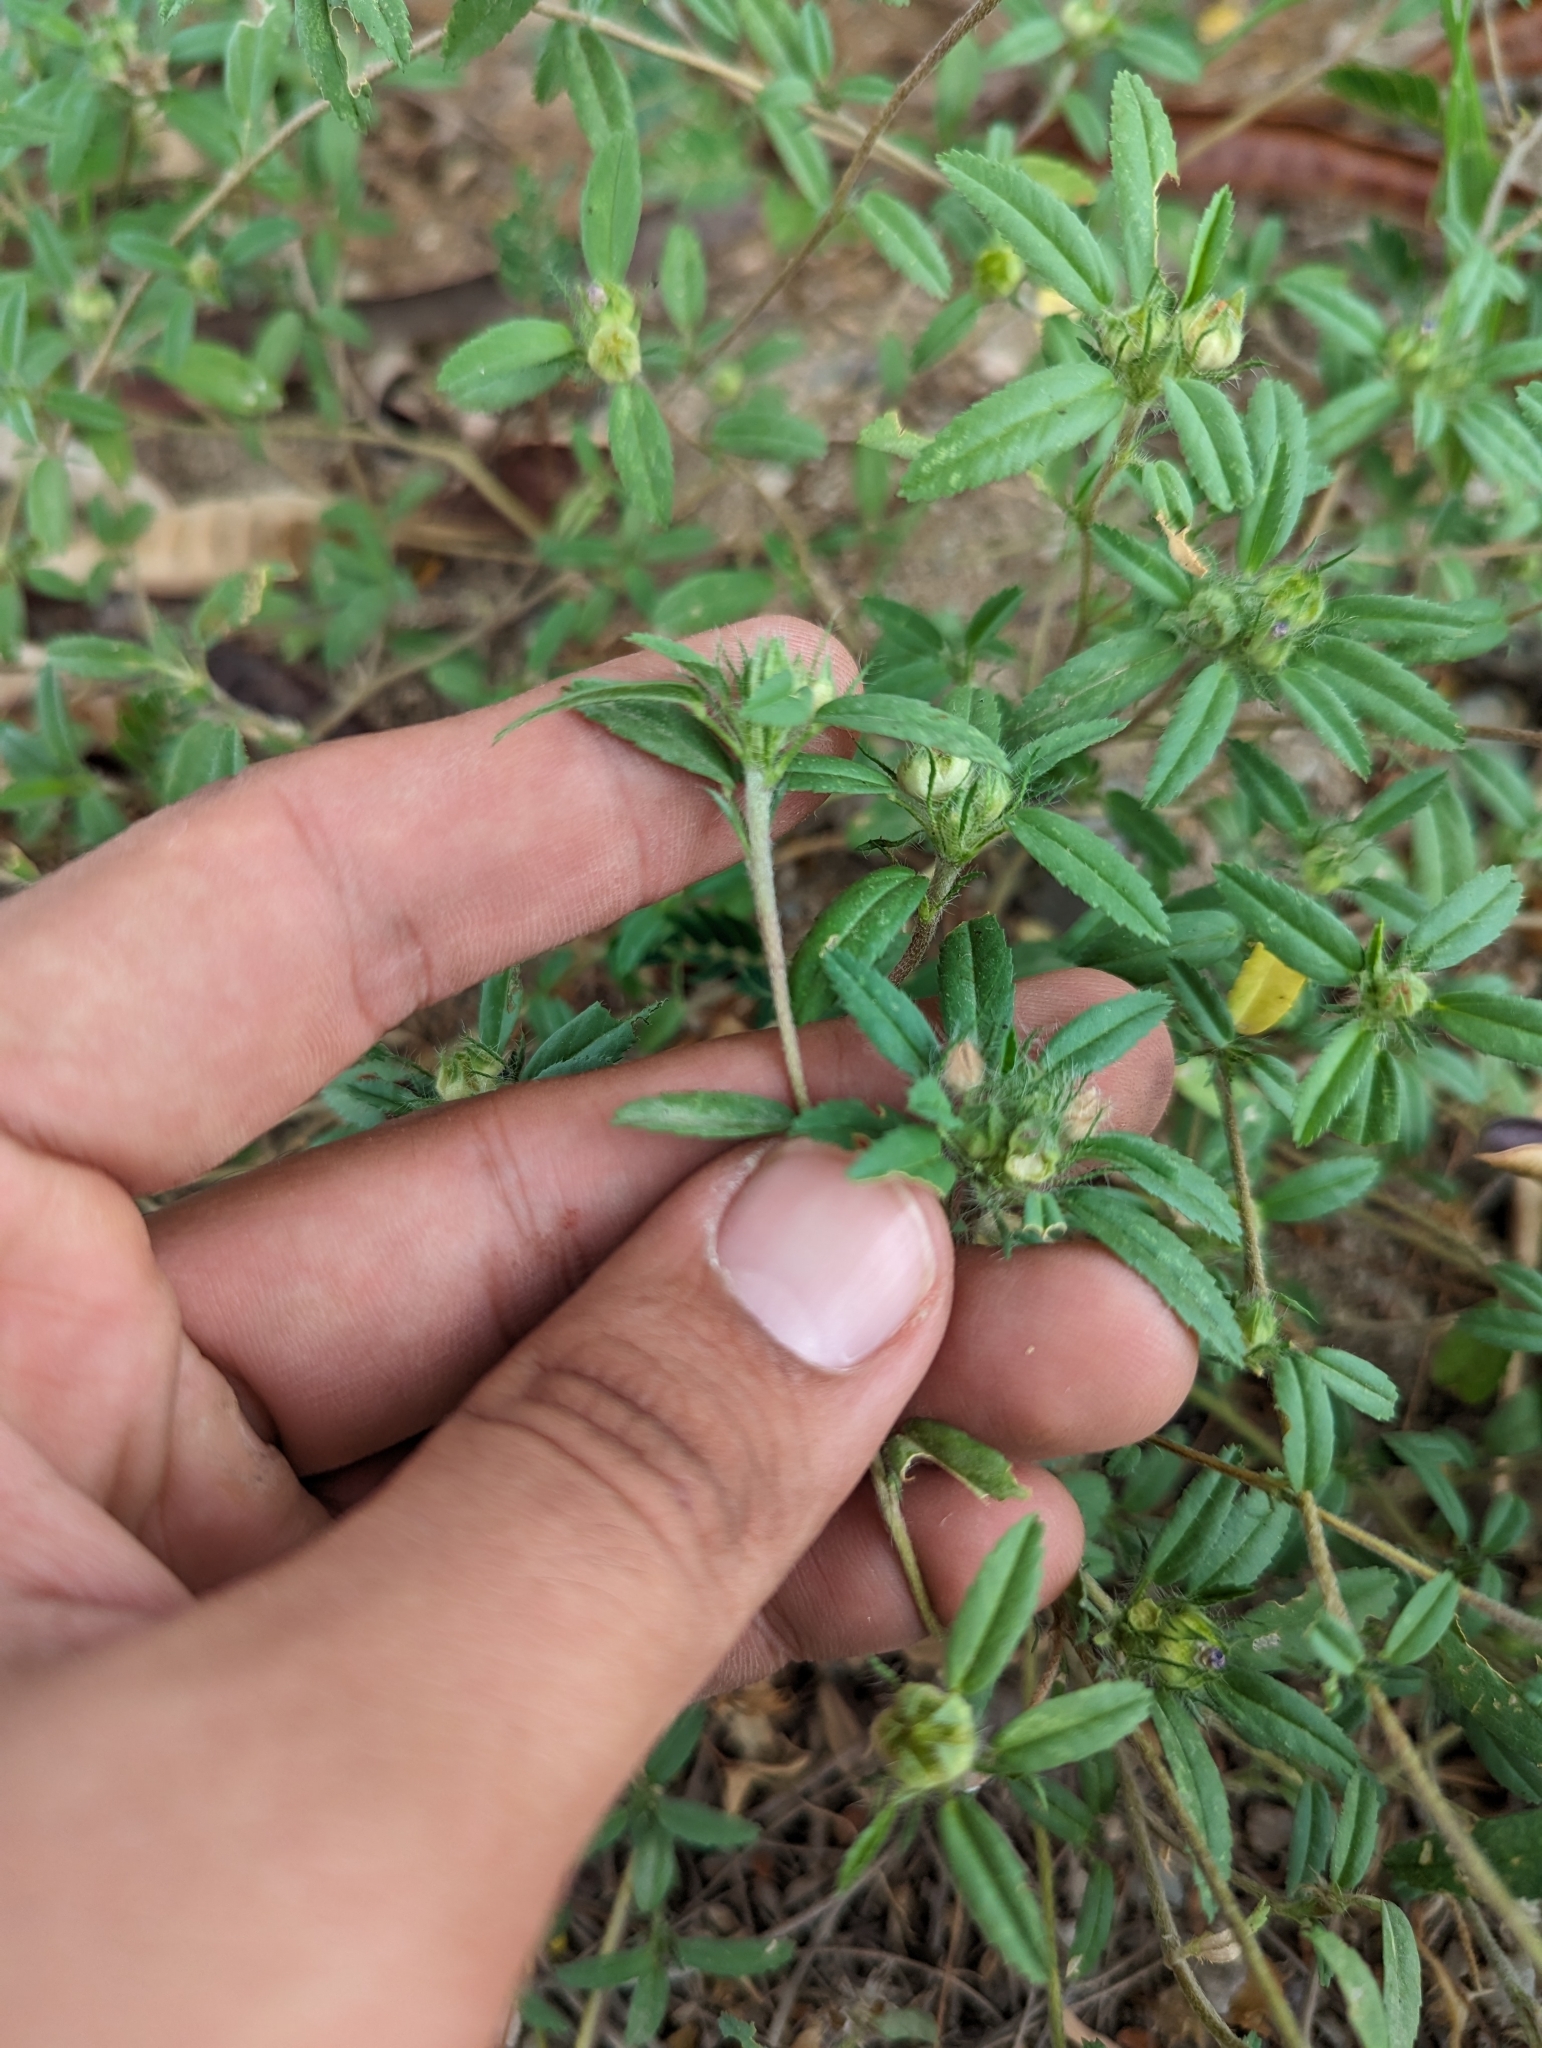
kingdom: Plantae
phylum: Tracheophyta
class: Magnoliopsida
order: Malvales
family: Malvaceae
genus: Sida
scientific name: Sida ciliaris
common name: Bracted fanpetals
